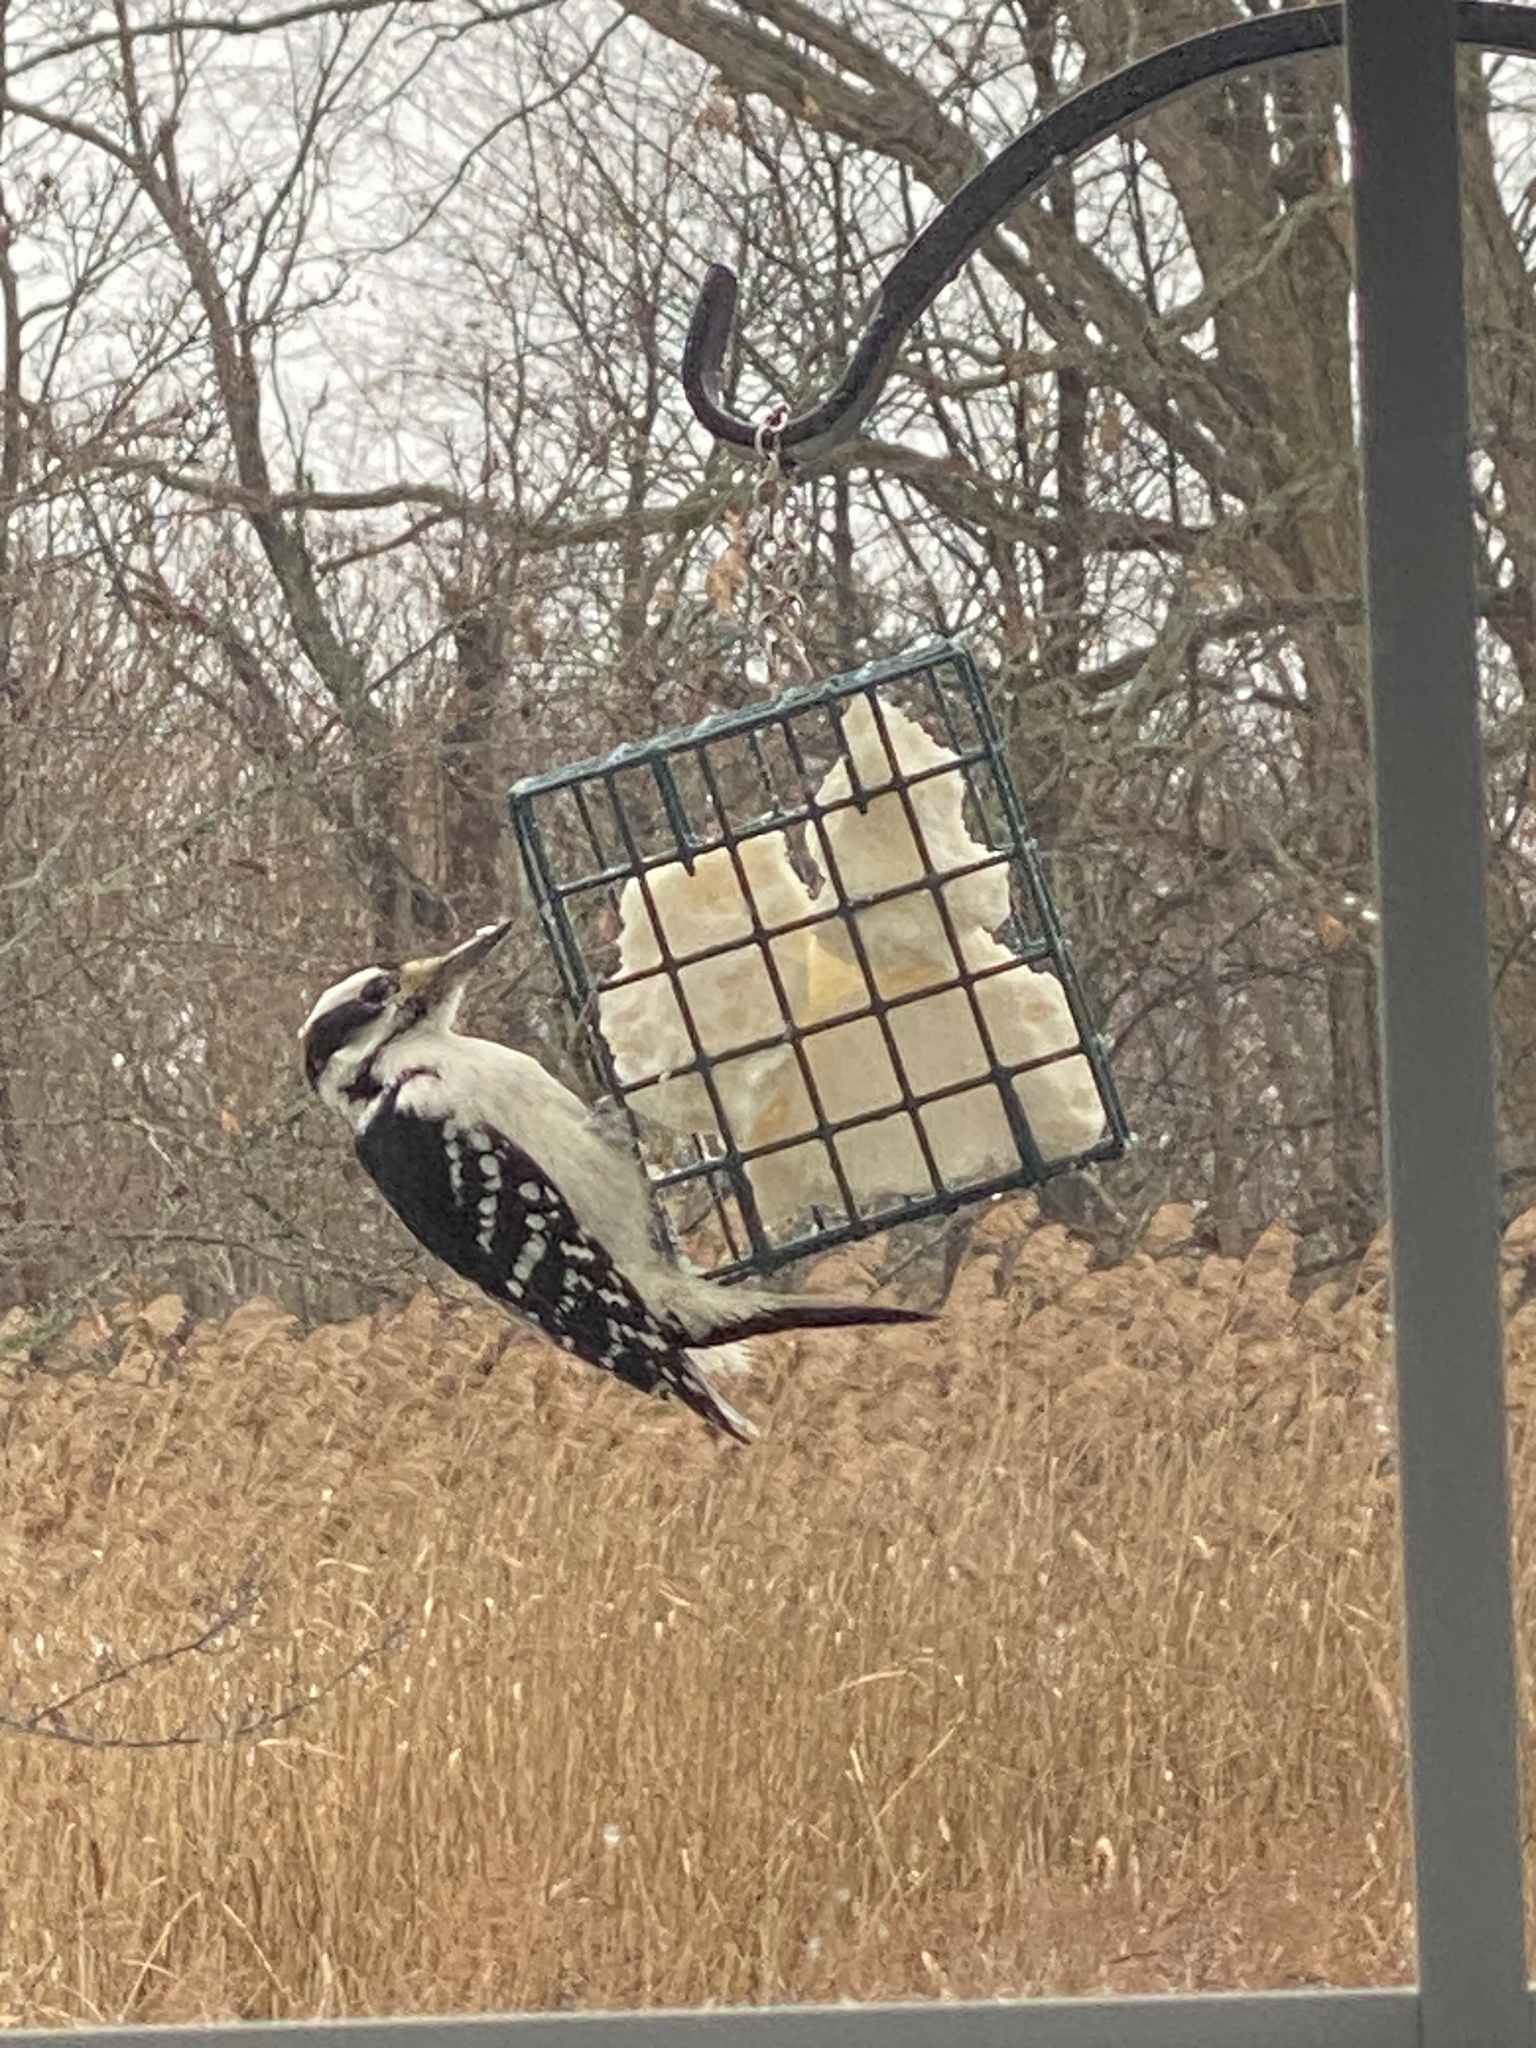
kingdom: Animalia
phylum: Chordata
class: Aves
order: Piciformes
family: Picidae
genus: Leuconotopicus
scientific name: Leuconotopicus villosus
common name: Hairy woodpecker
